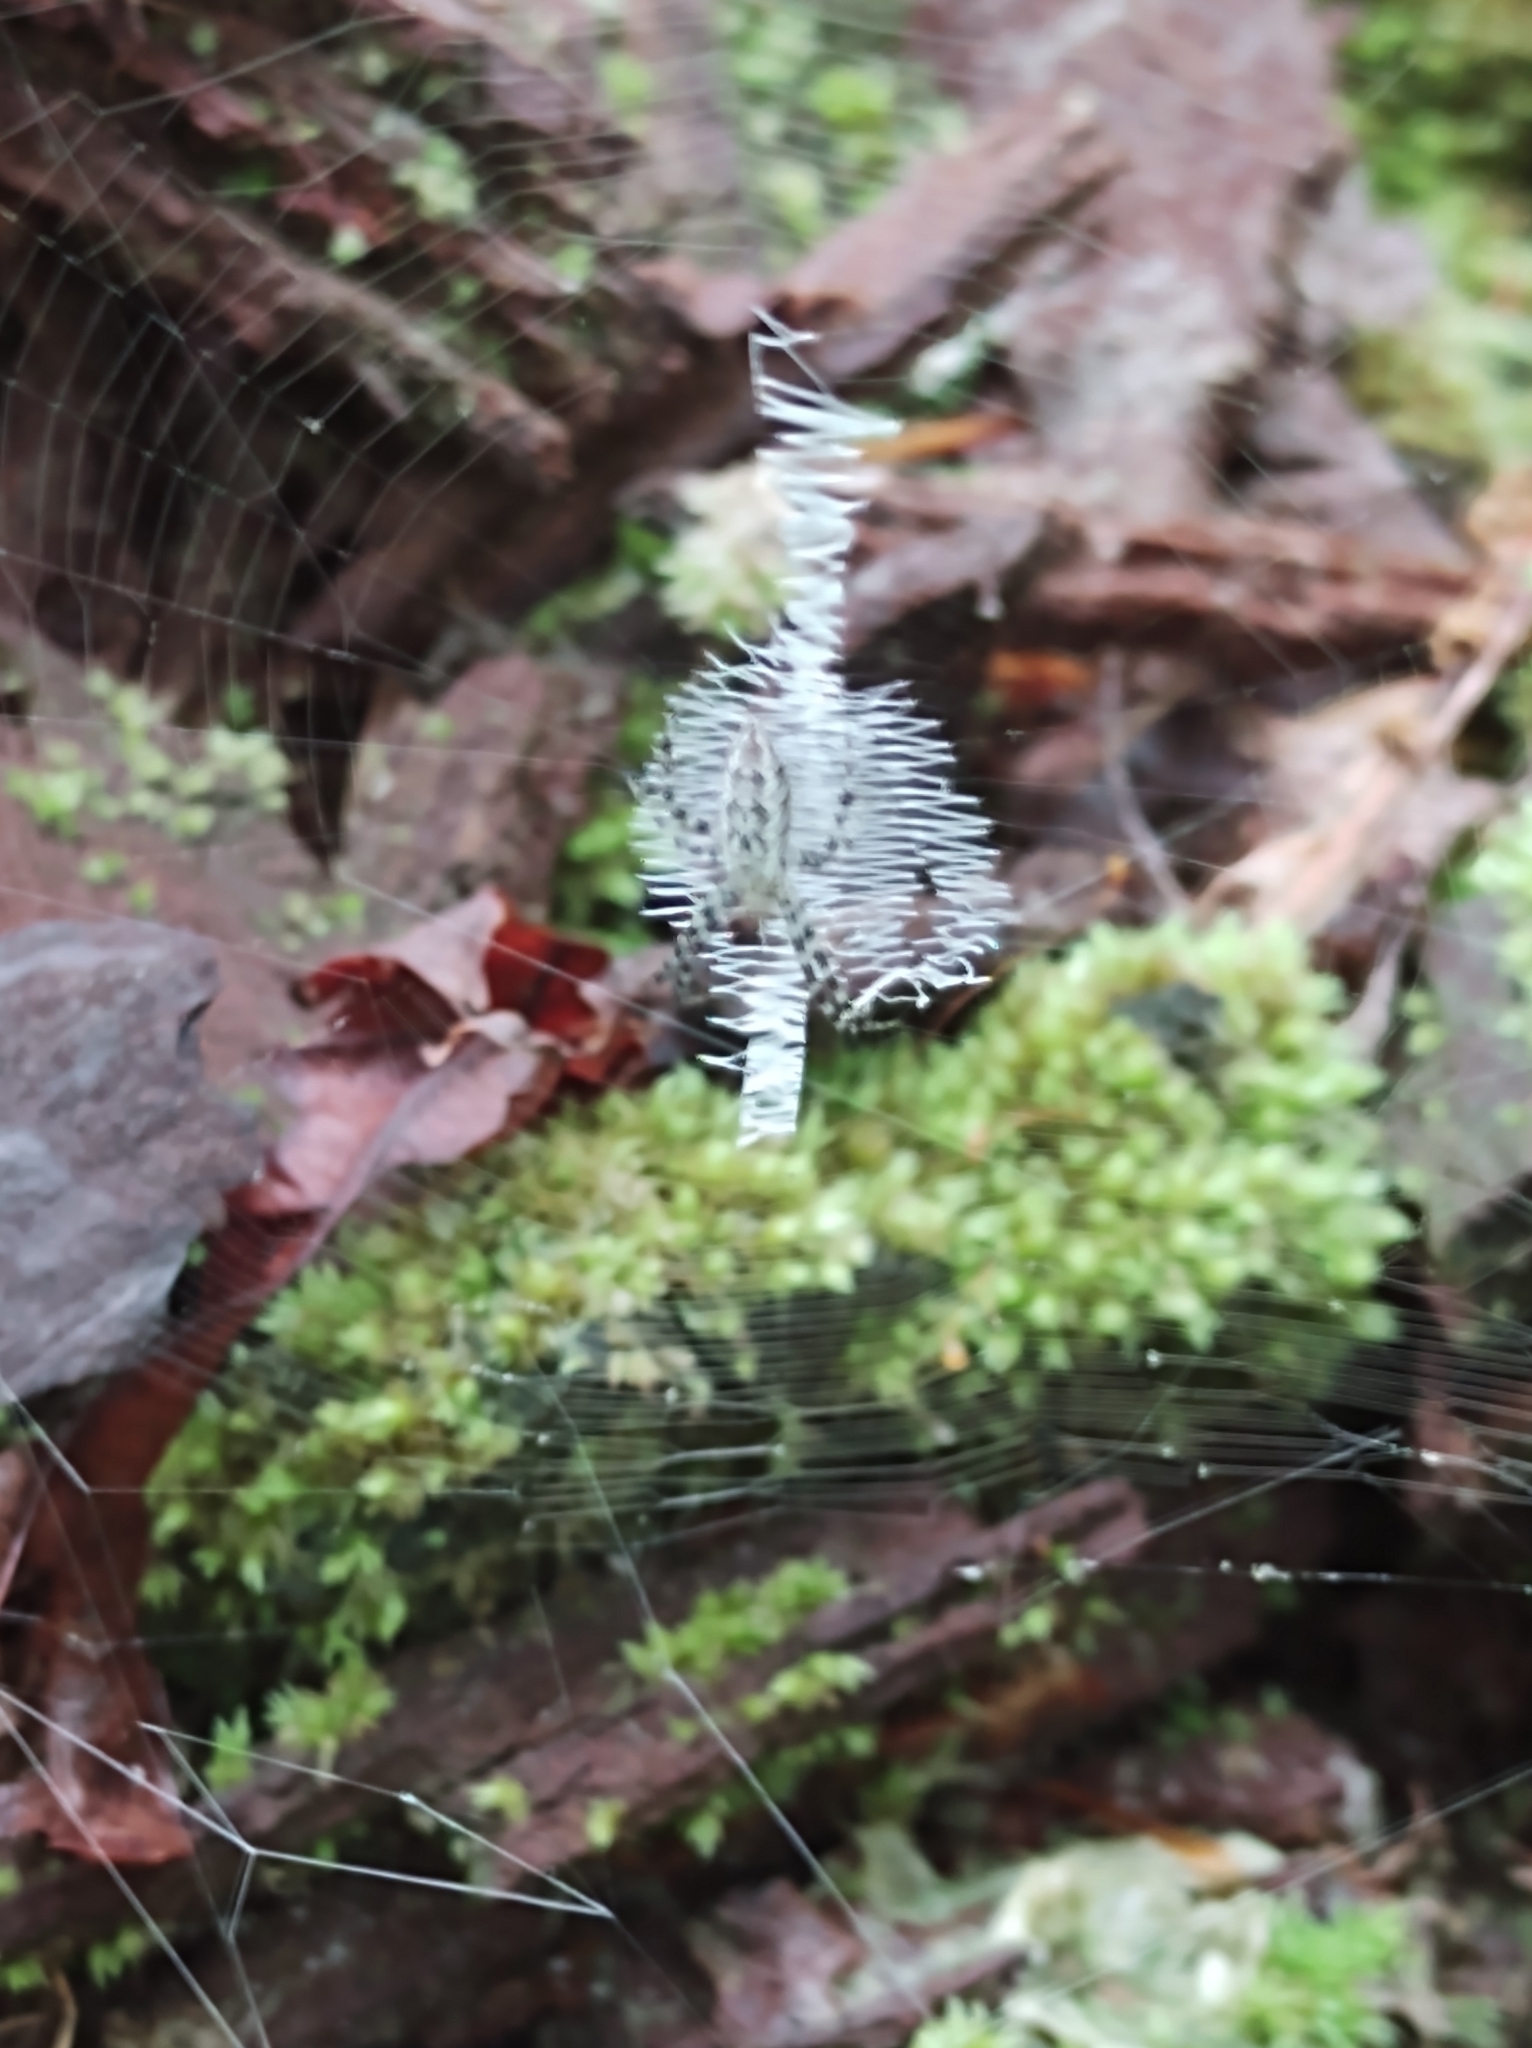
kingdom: Animalia
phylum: Arthropoda
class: Arachnida
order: Araneae
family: Araneidae
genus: Argiope
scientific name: Argiope aurantia
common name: Orb weavers
